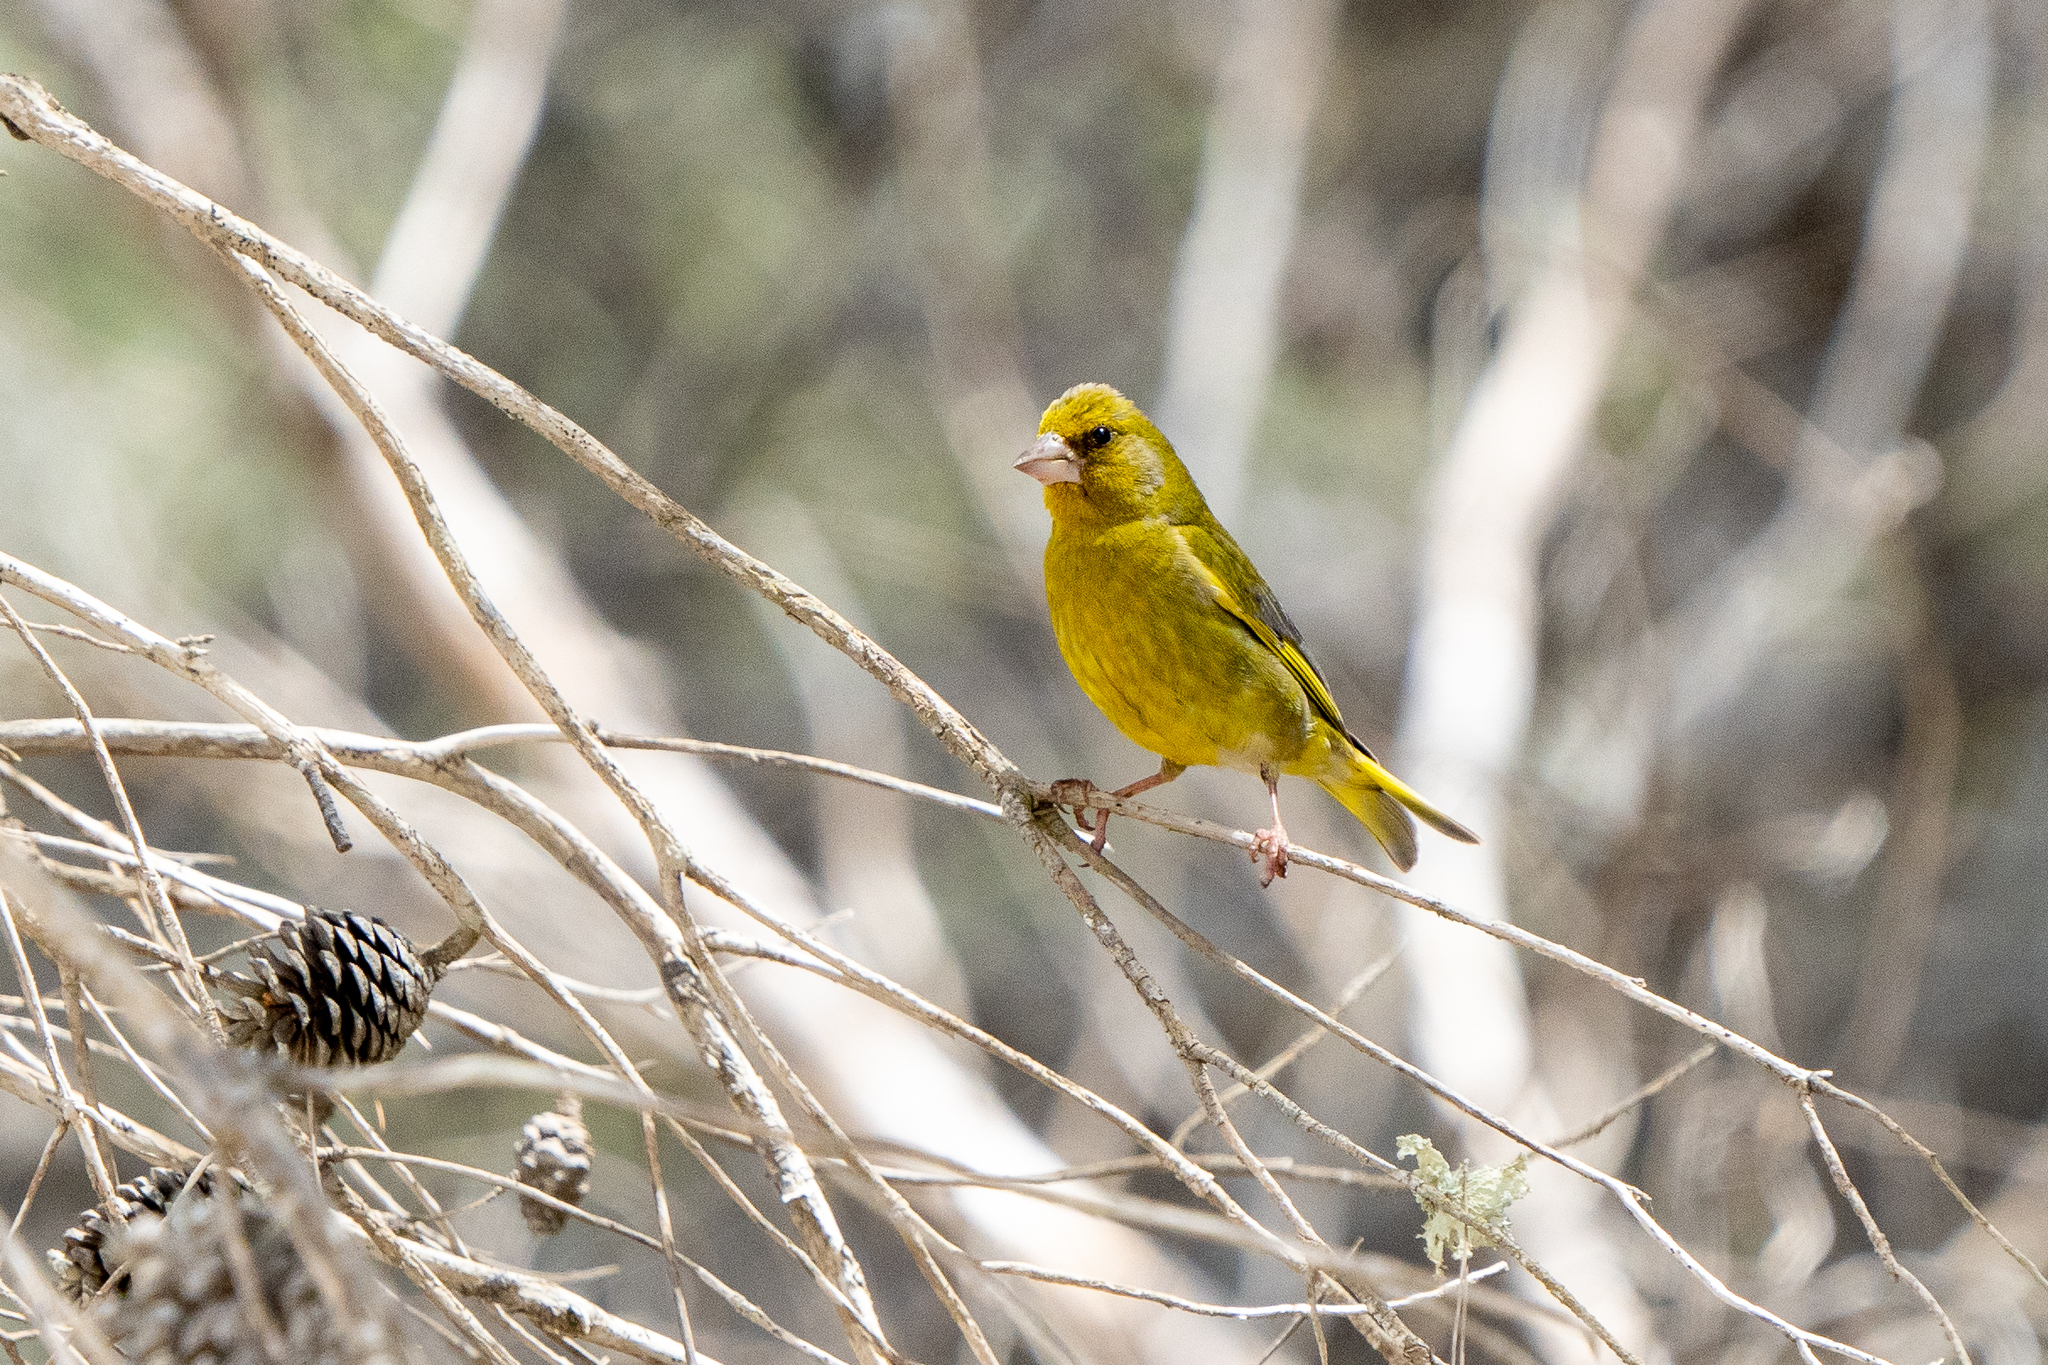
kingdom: Plantae
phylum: Tracheophyta
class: Liliopsida
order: Poales
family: Poaceae
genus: Chloris
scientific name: Chloris chloris
